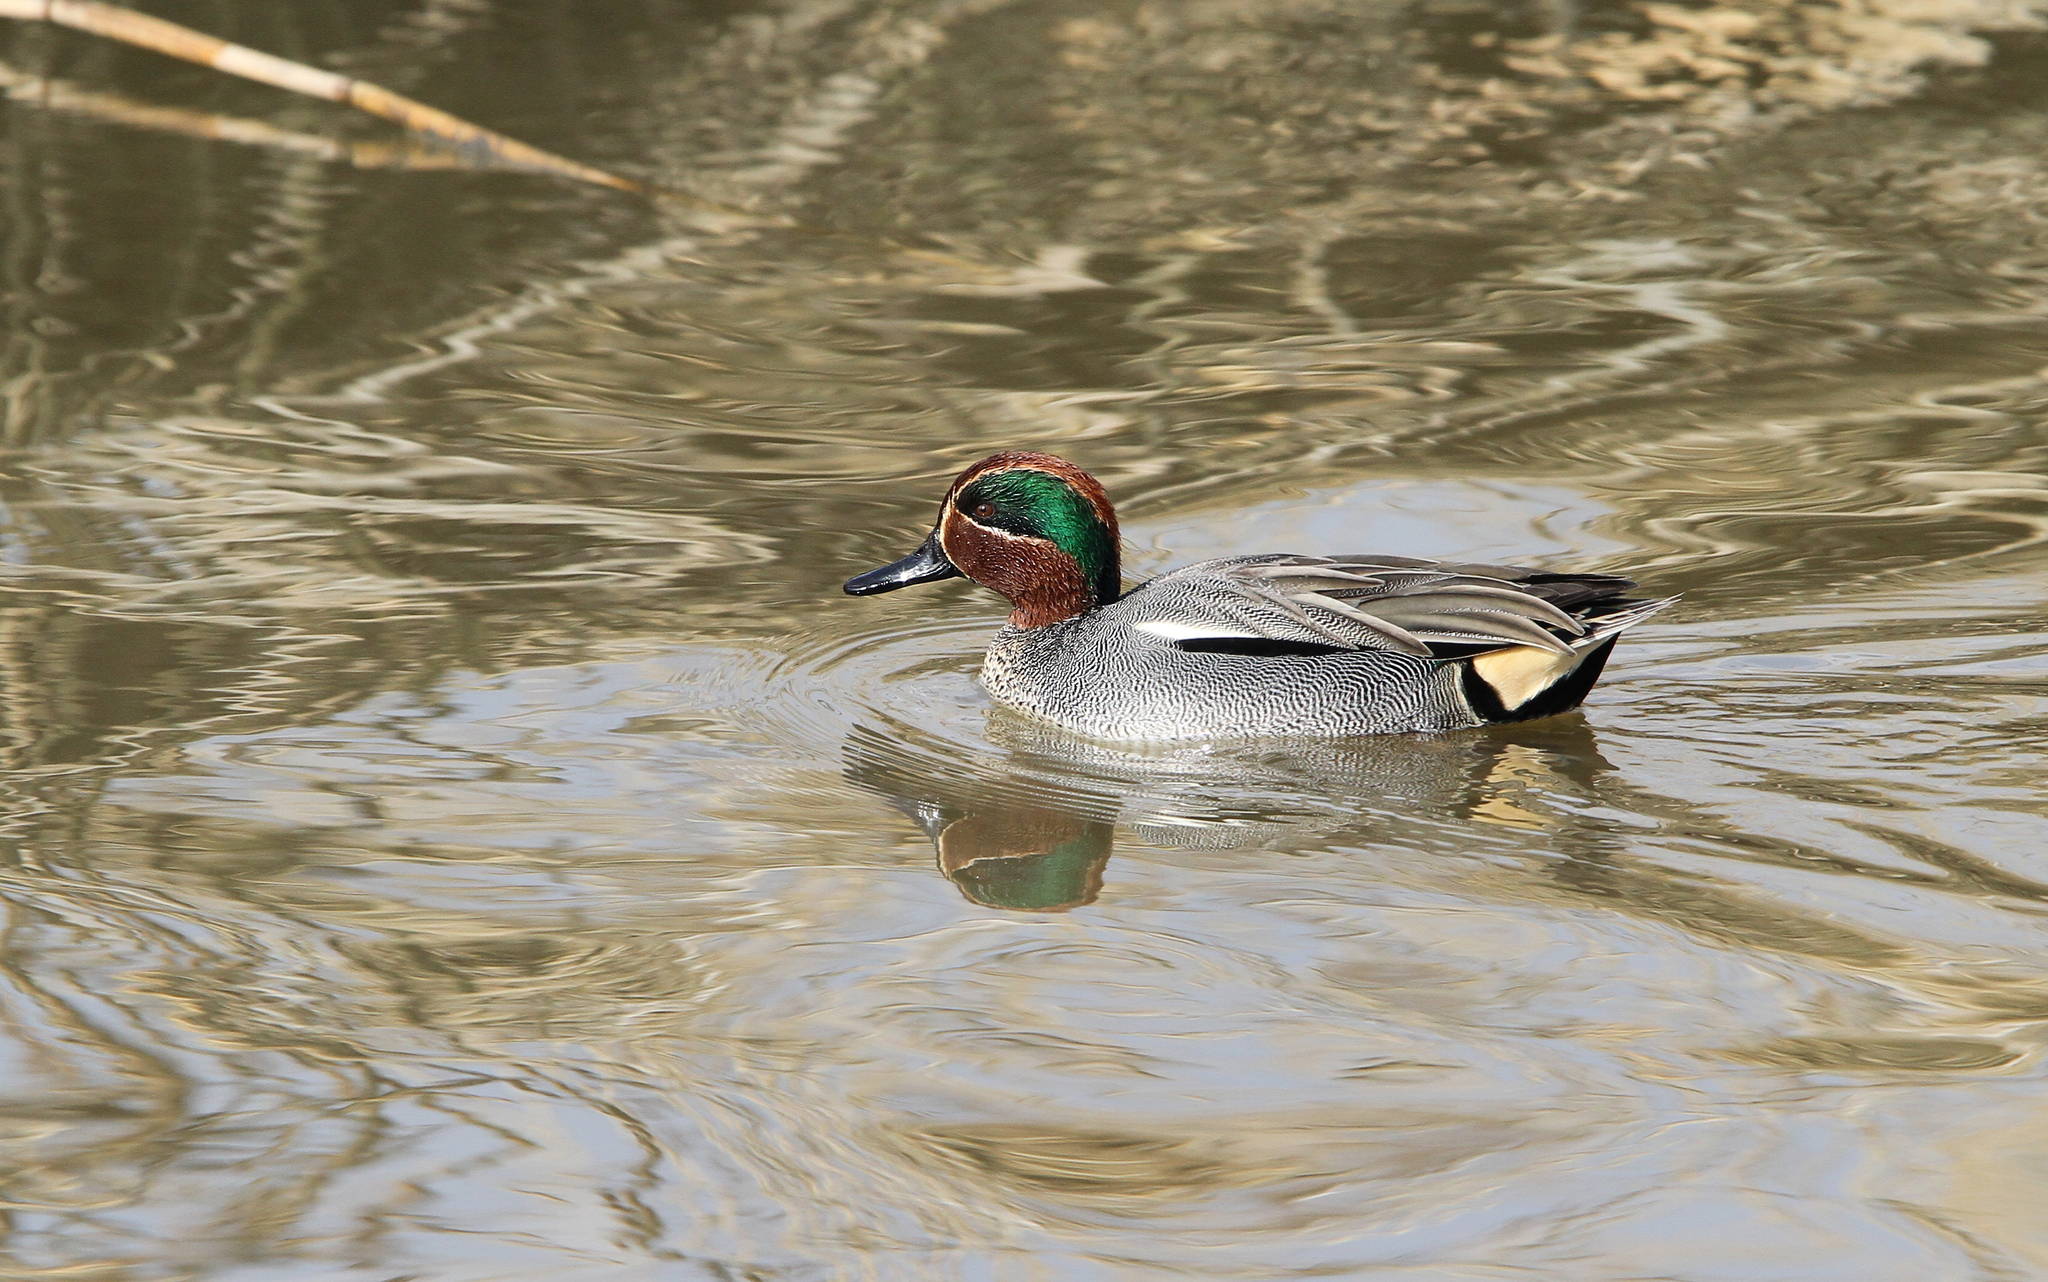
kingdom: Animalia
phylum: Chordata
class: Aves
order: Anseriformes
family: Anatidae
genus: Anas
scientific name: Anas crecca
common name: Eurasian teal
